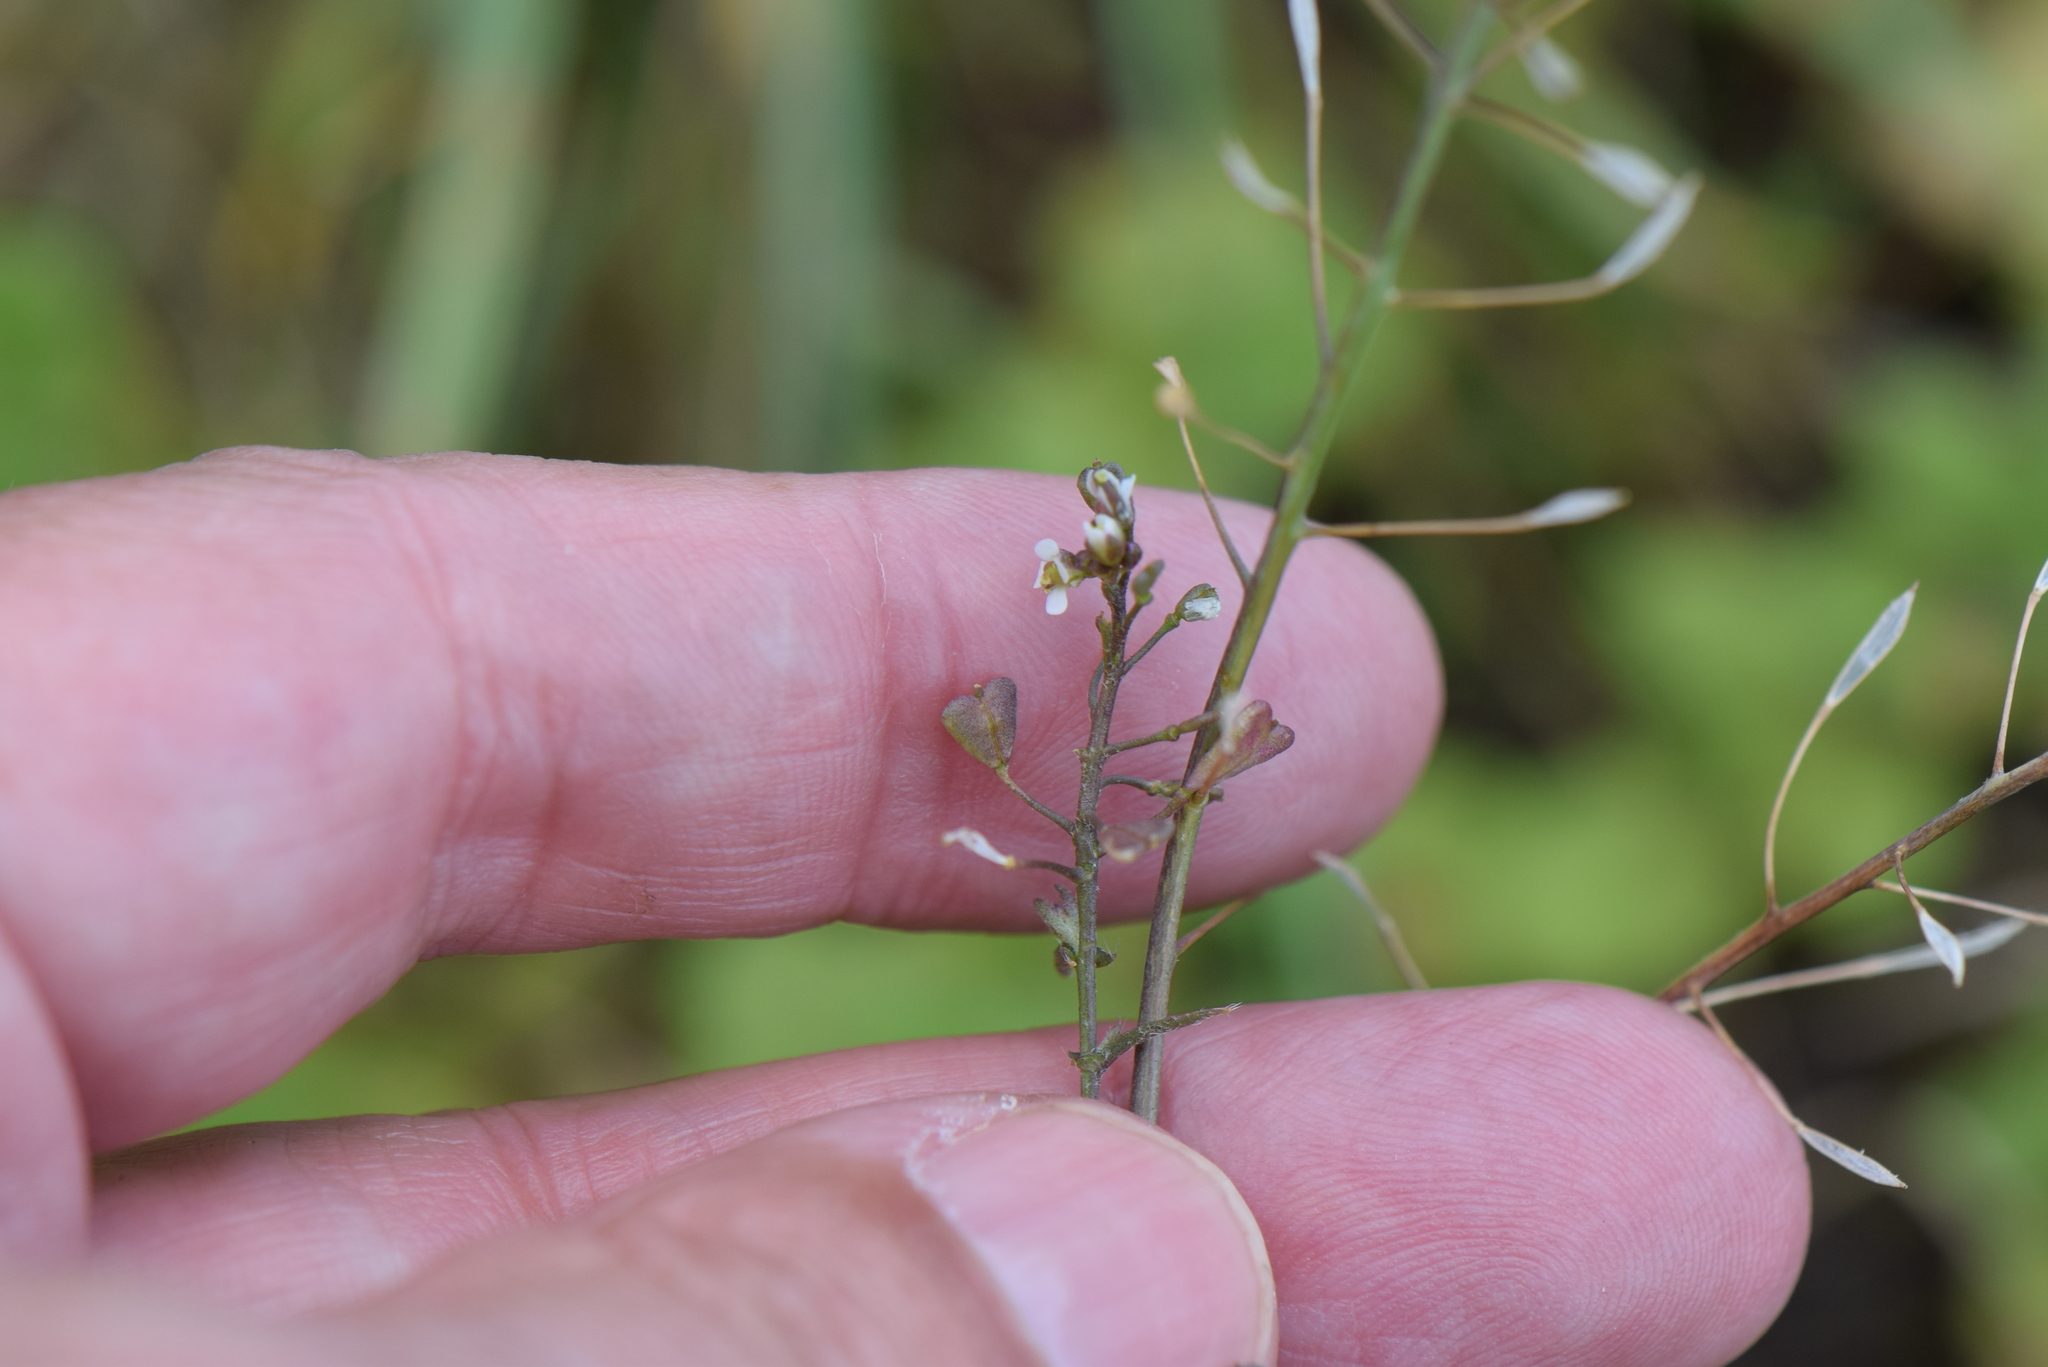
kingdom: Plantae
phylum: Tracheophyta
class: Magnoliopsida
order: Brassicales
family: Brassicaceae
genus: Capsella
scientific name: Capsella bursa-pastoris
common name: Shepherd's purse
